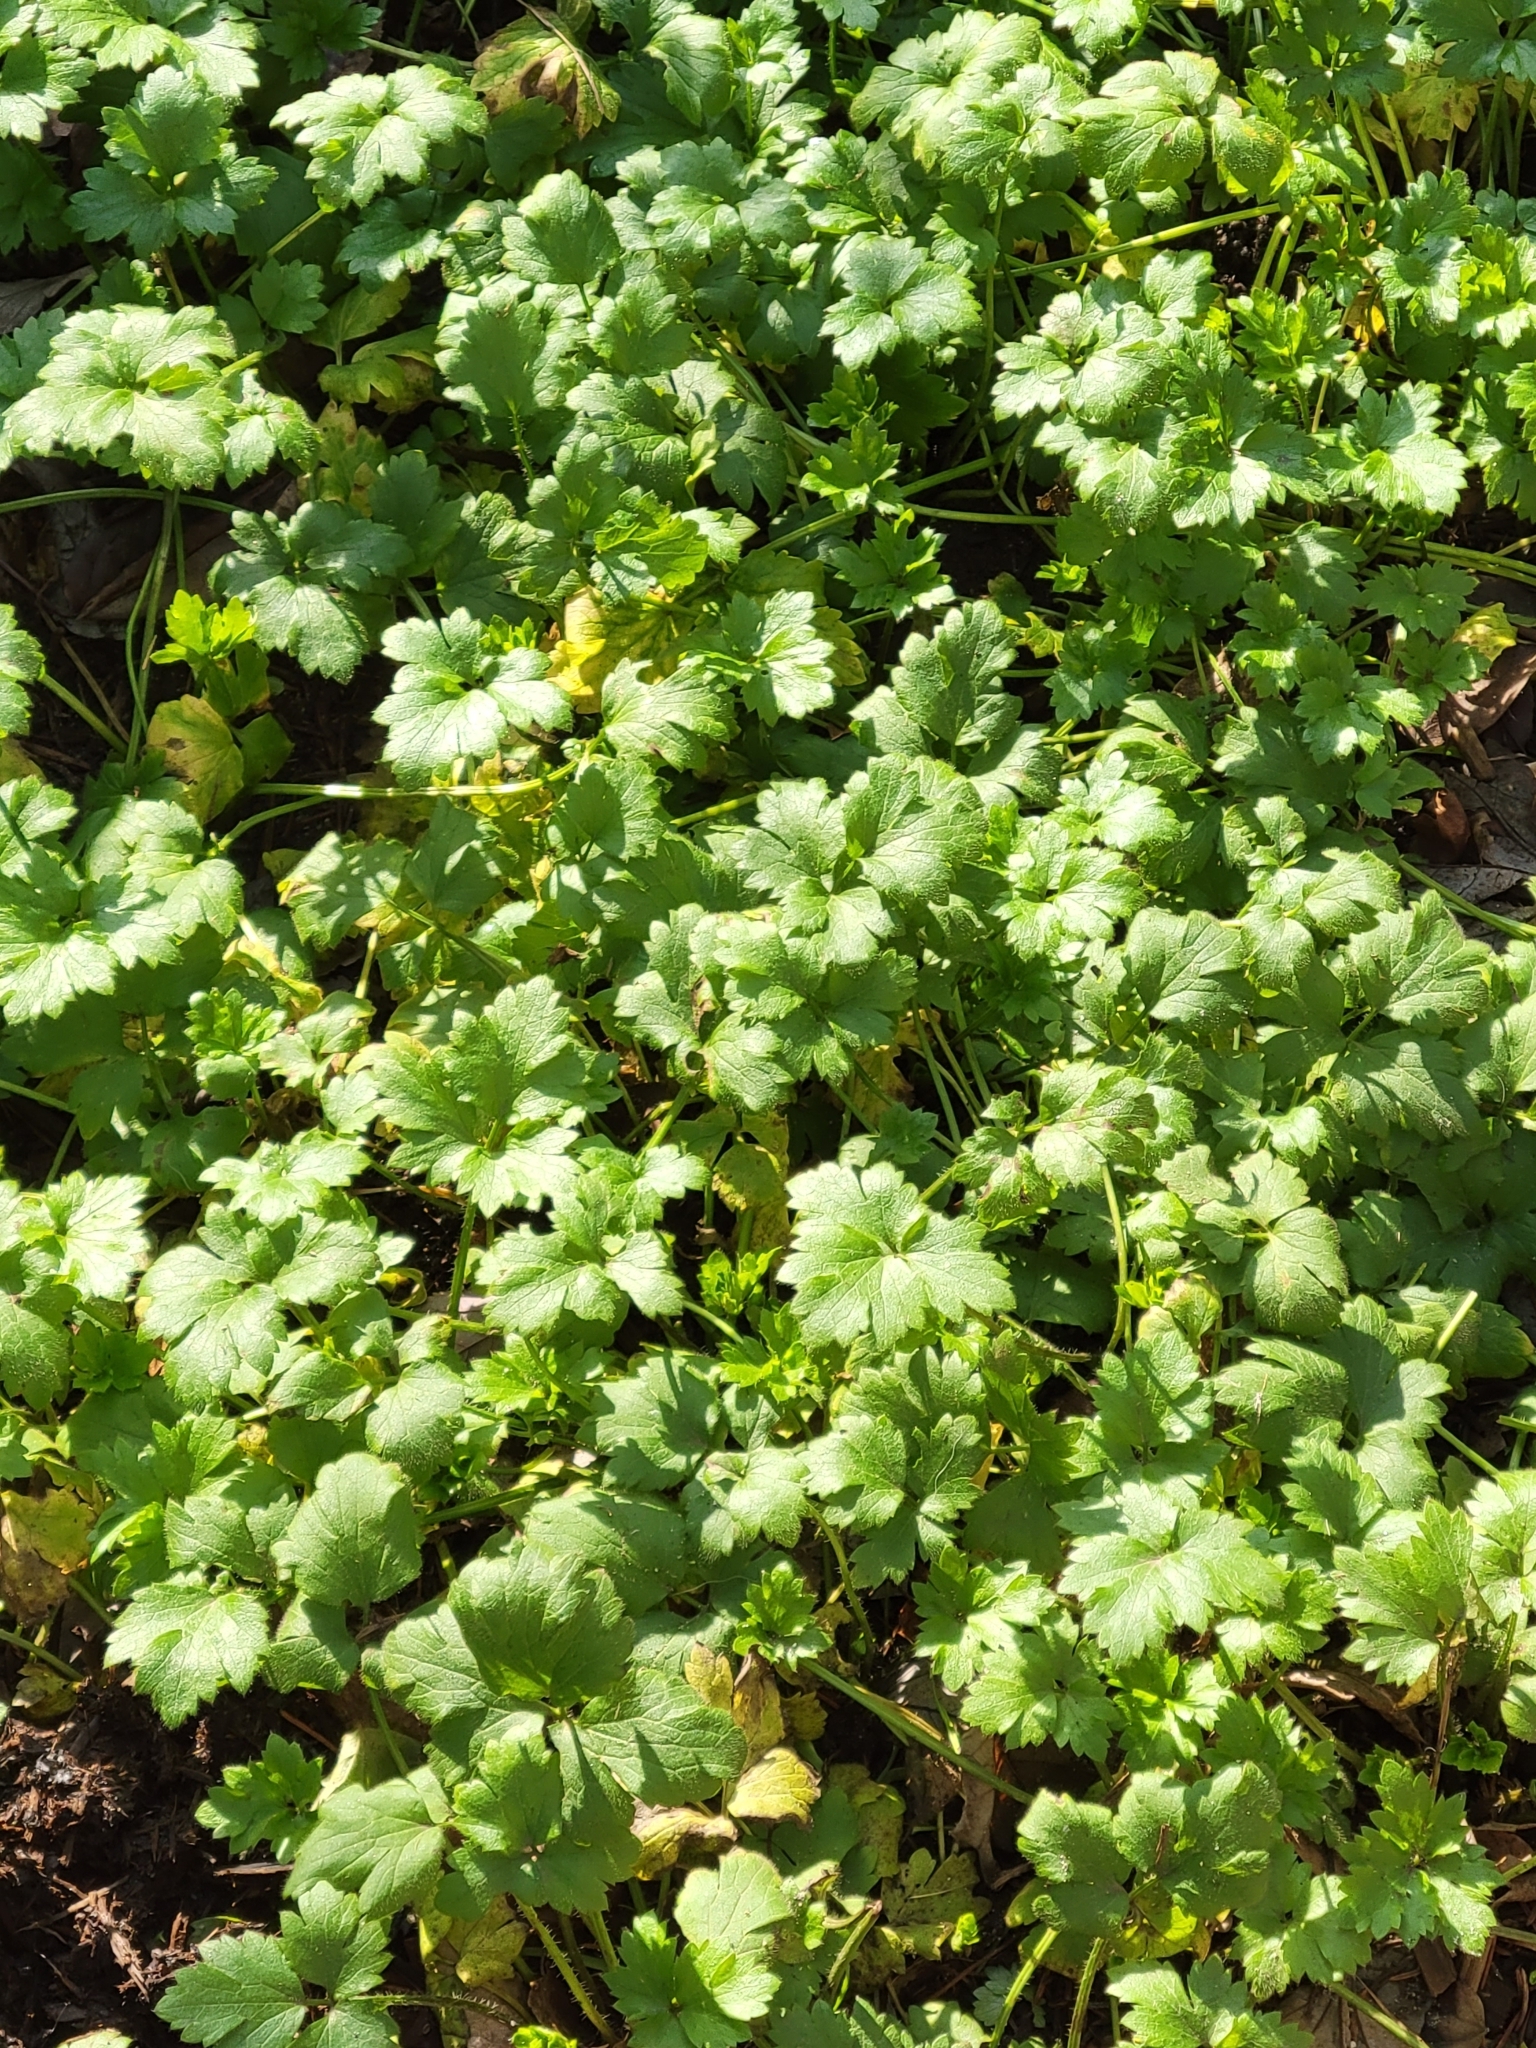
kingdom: Plantae
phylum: Tracheophyta
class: Magnoliopsida
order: Ranunculales
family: Ranunculaceae
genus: Ranunculus
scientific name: Ranunculus repens
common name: Creeping buttercup
